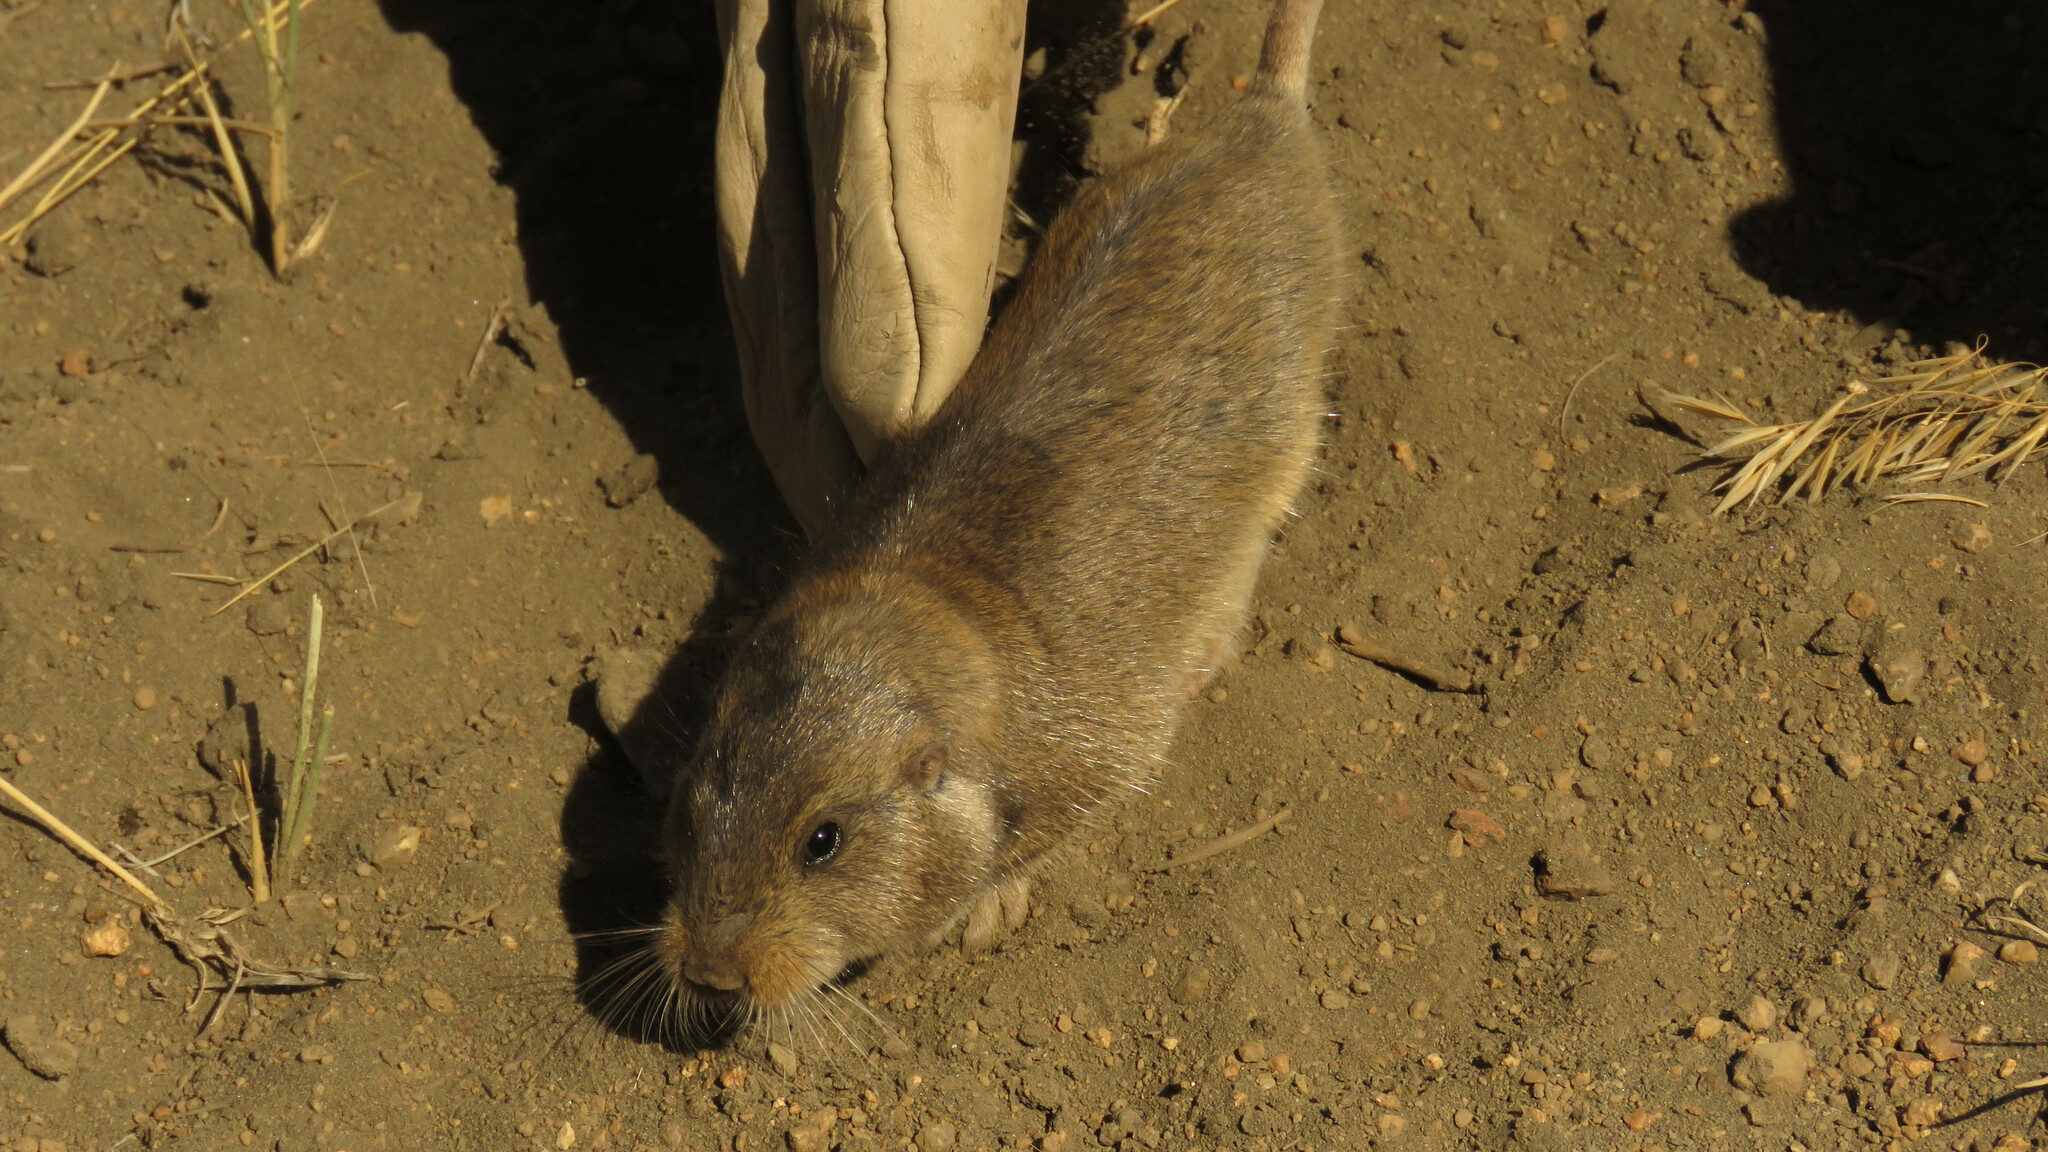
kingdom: Animalia
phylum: Chordata
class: Mammalia
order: Rodentia
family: Ctenomyidae
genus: Ctenomys
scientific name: Ctenomys maulinus
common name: Maule tuco-tuco
